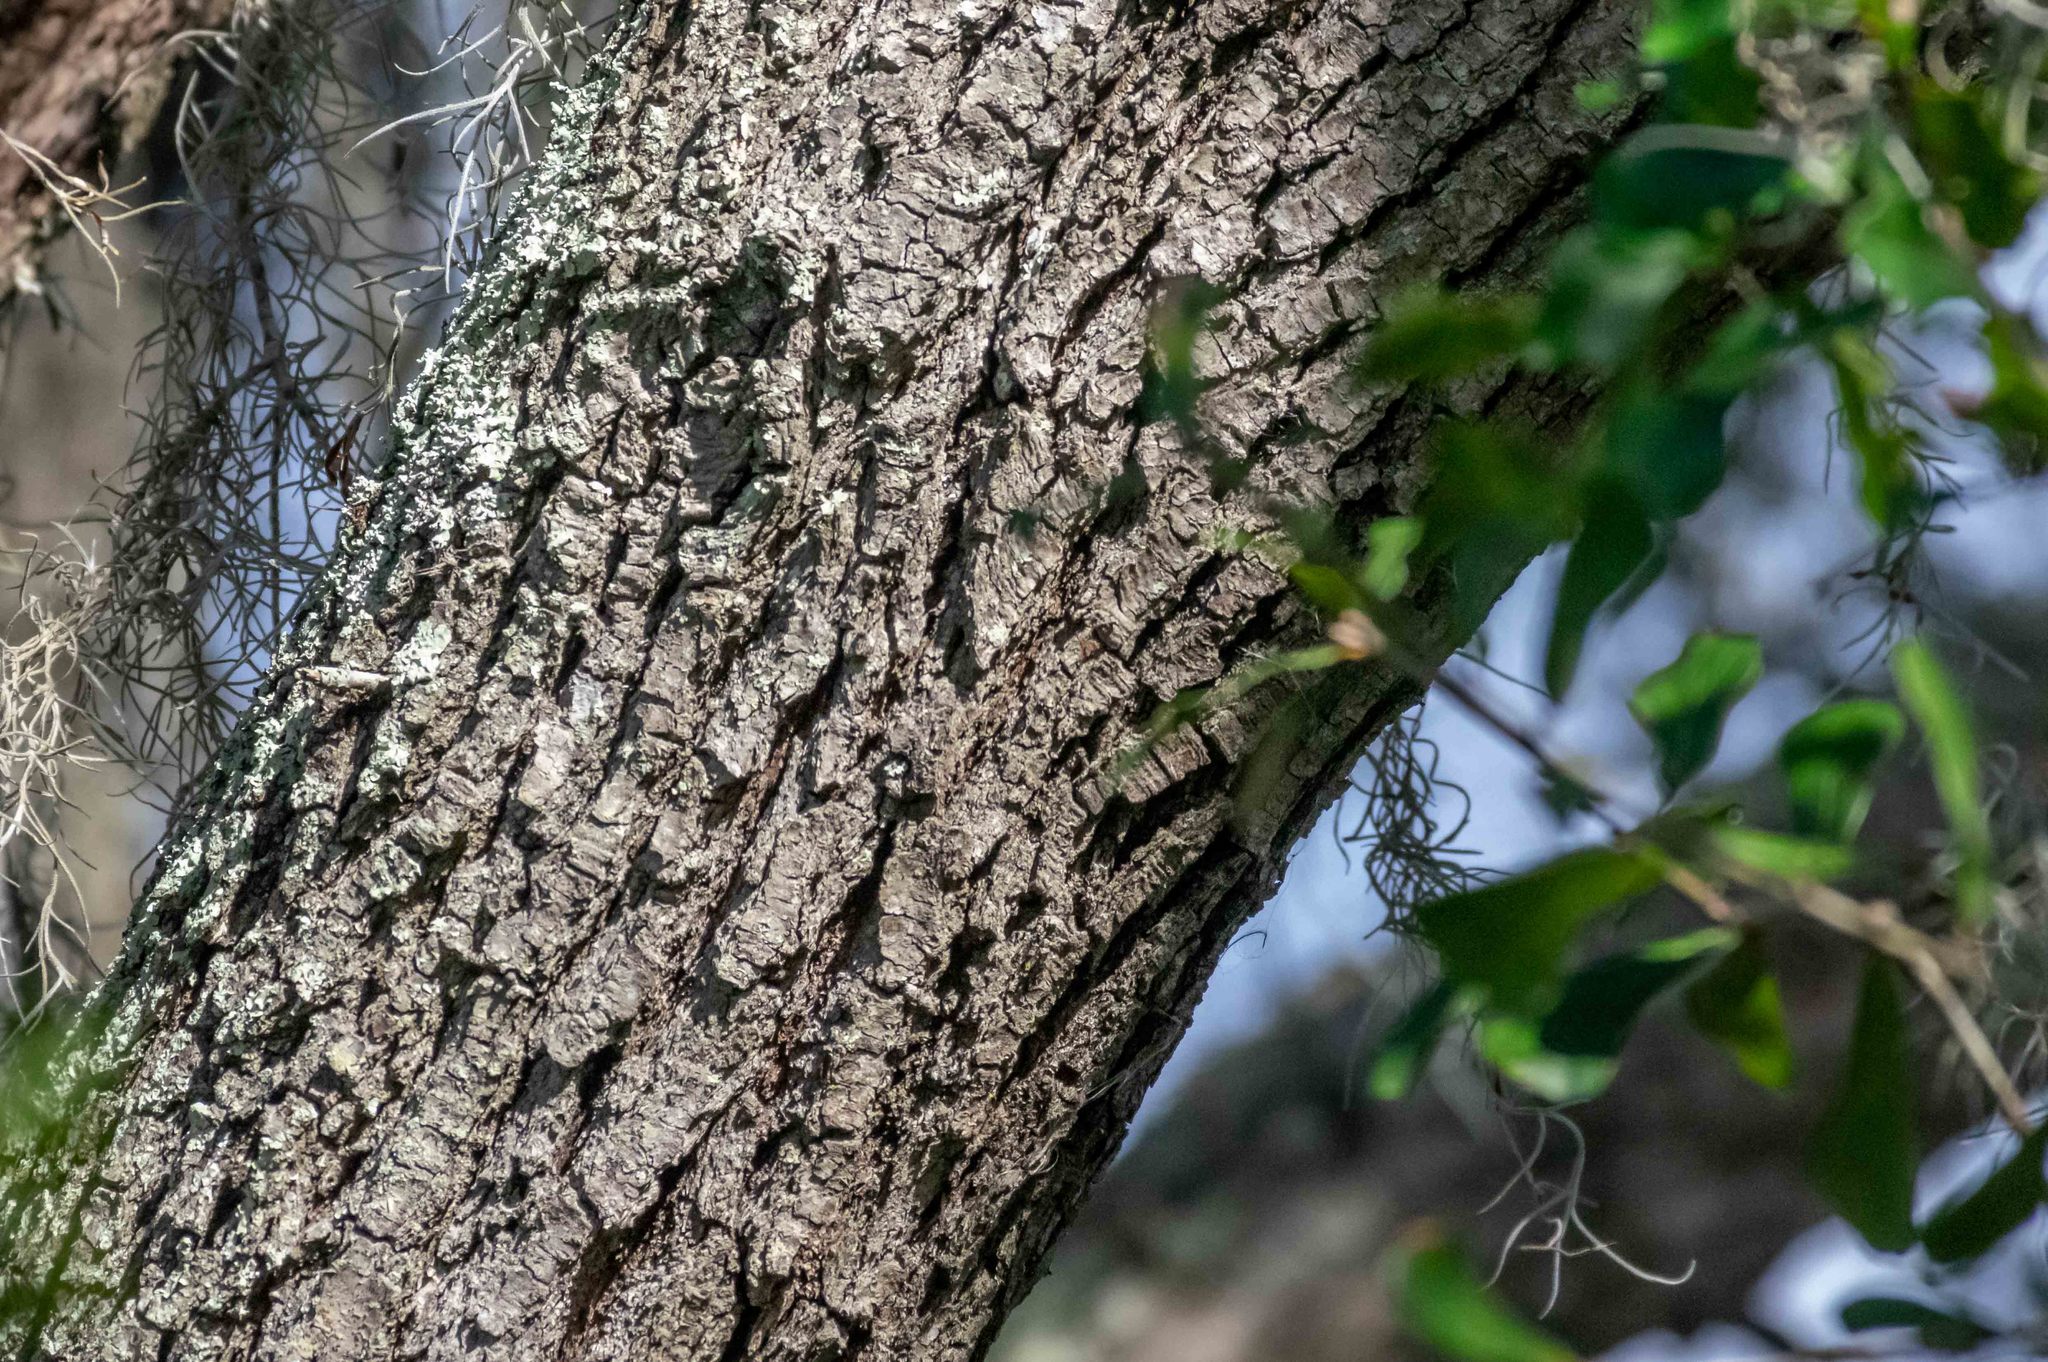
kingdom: Plantae
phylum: Tracheophyta
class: Magnoliopsida
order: Fagales
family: Fagaceae
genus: Quercus
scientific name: Quercus nigra
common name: Water oak
